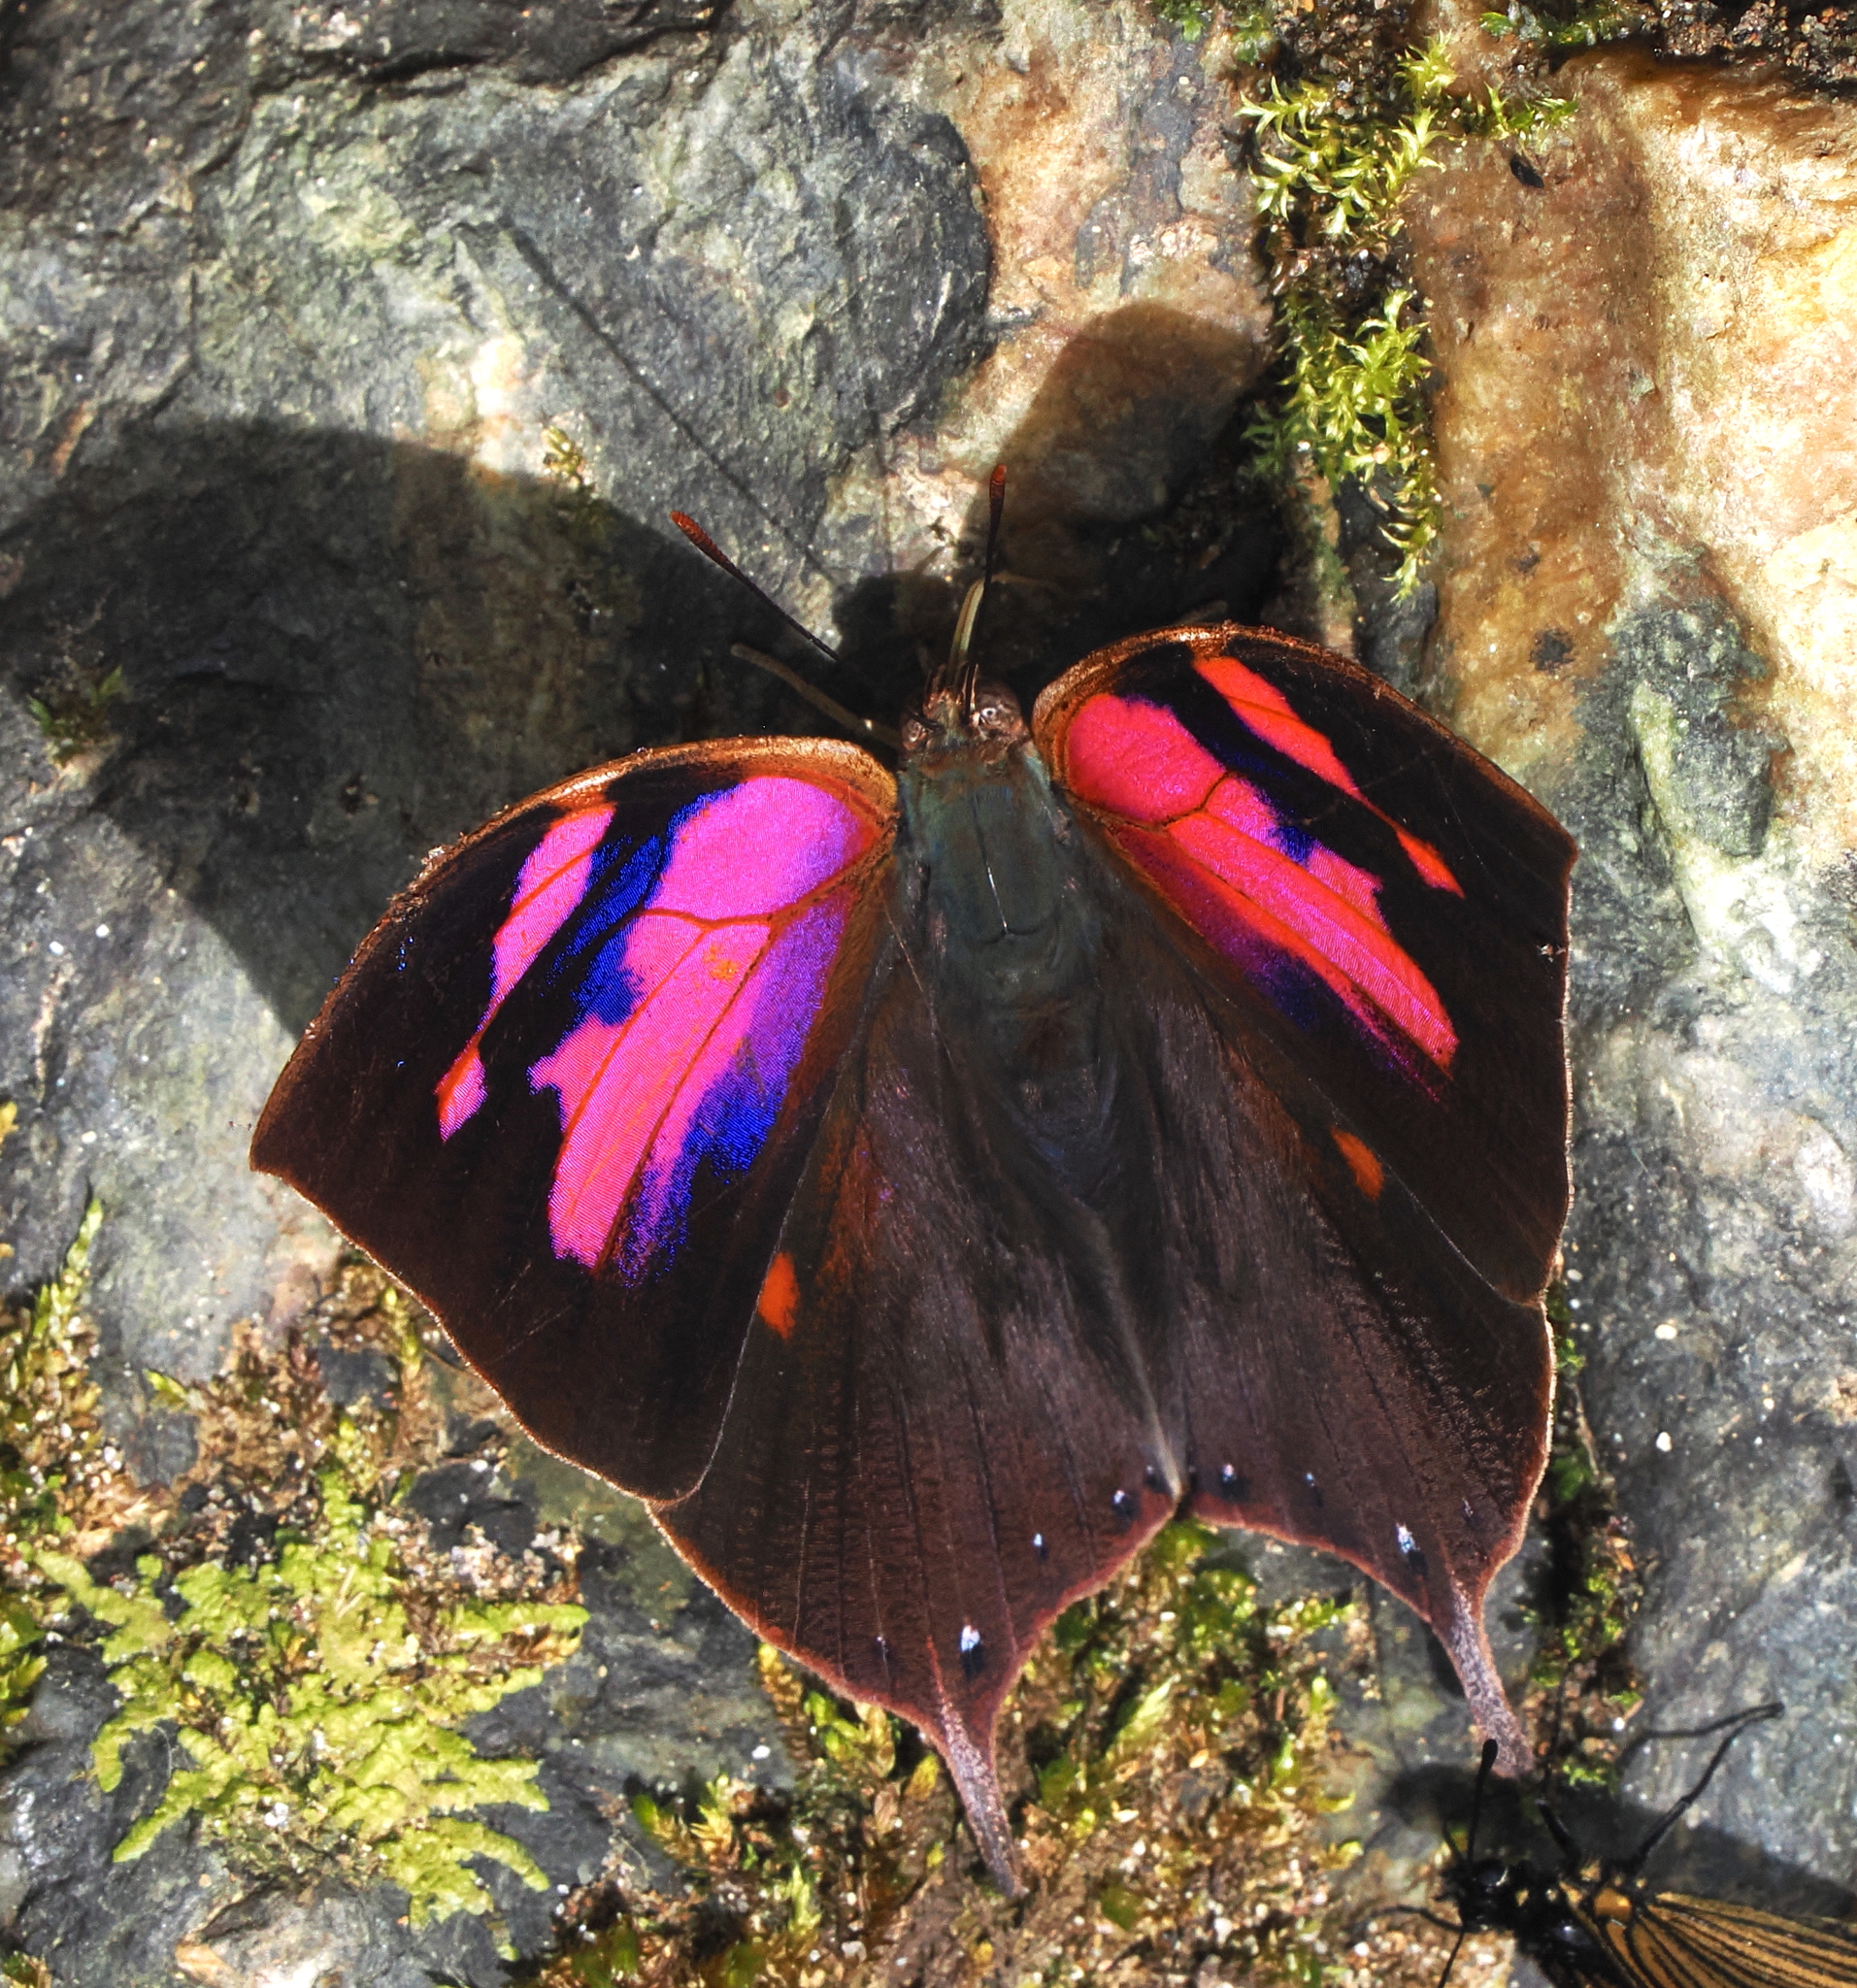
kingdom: Animalia
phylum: Arthropoda
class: Insecta
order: Lepidoptera
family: Nymphalidae
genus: Fountainea
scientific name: Fountainea
